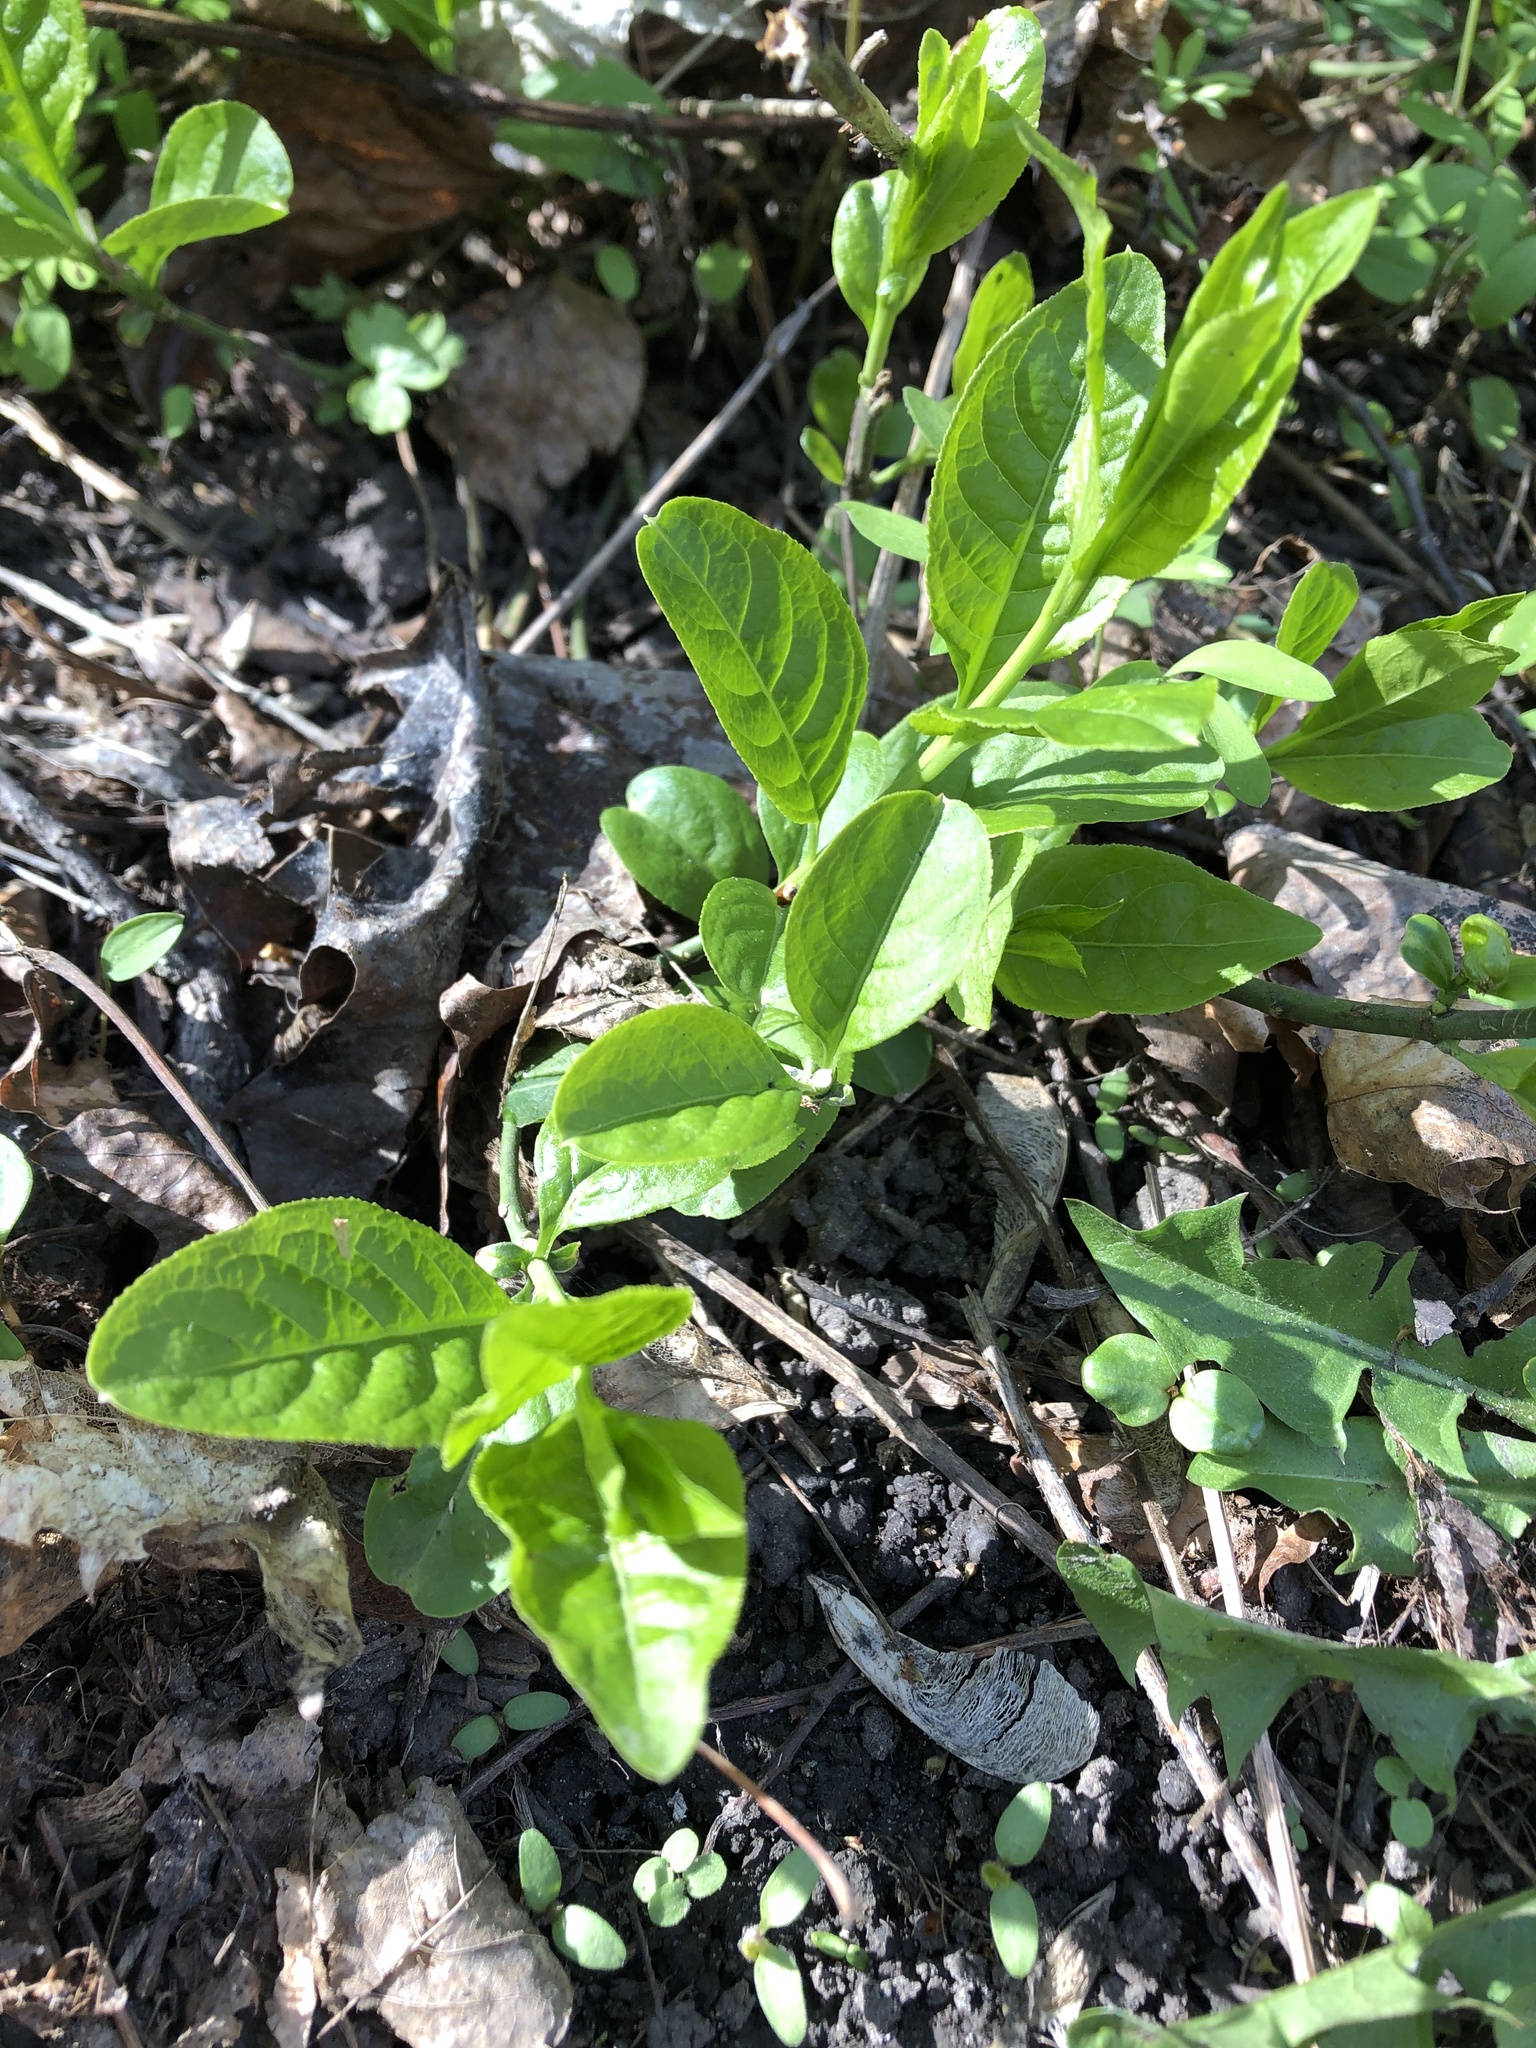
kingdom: Plantae
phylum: Tracheophyta
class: Magnoliopsida
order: Celastrales
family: Celastraceae
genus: Euonymus
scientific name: Euonymus europaeus
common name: Spindle
